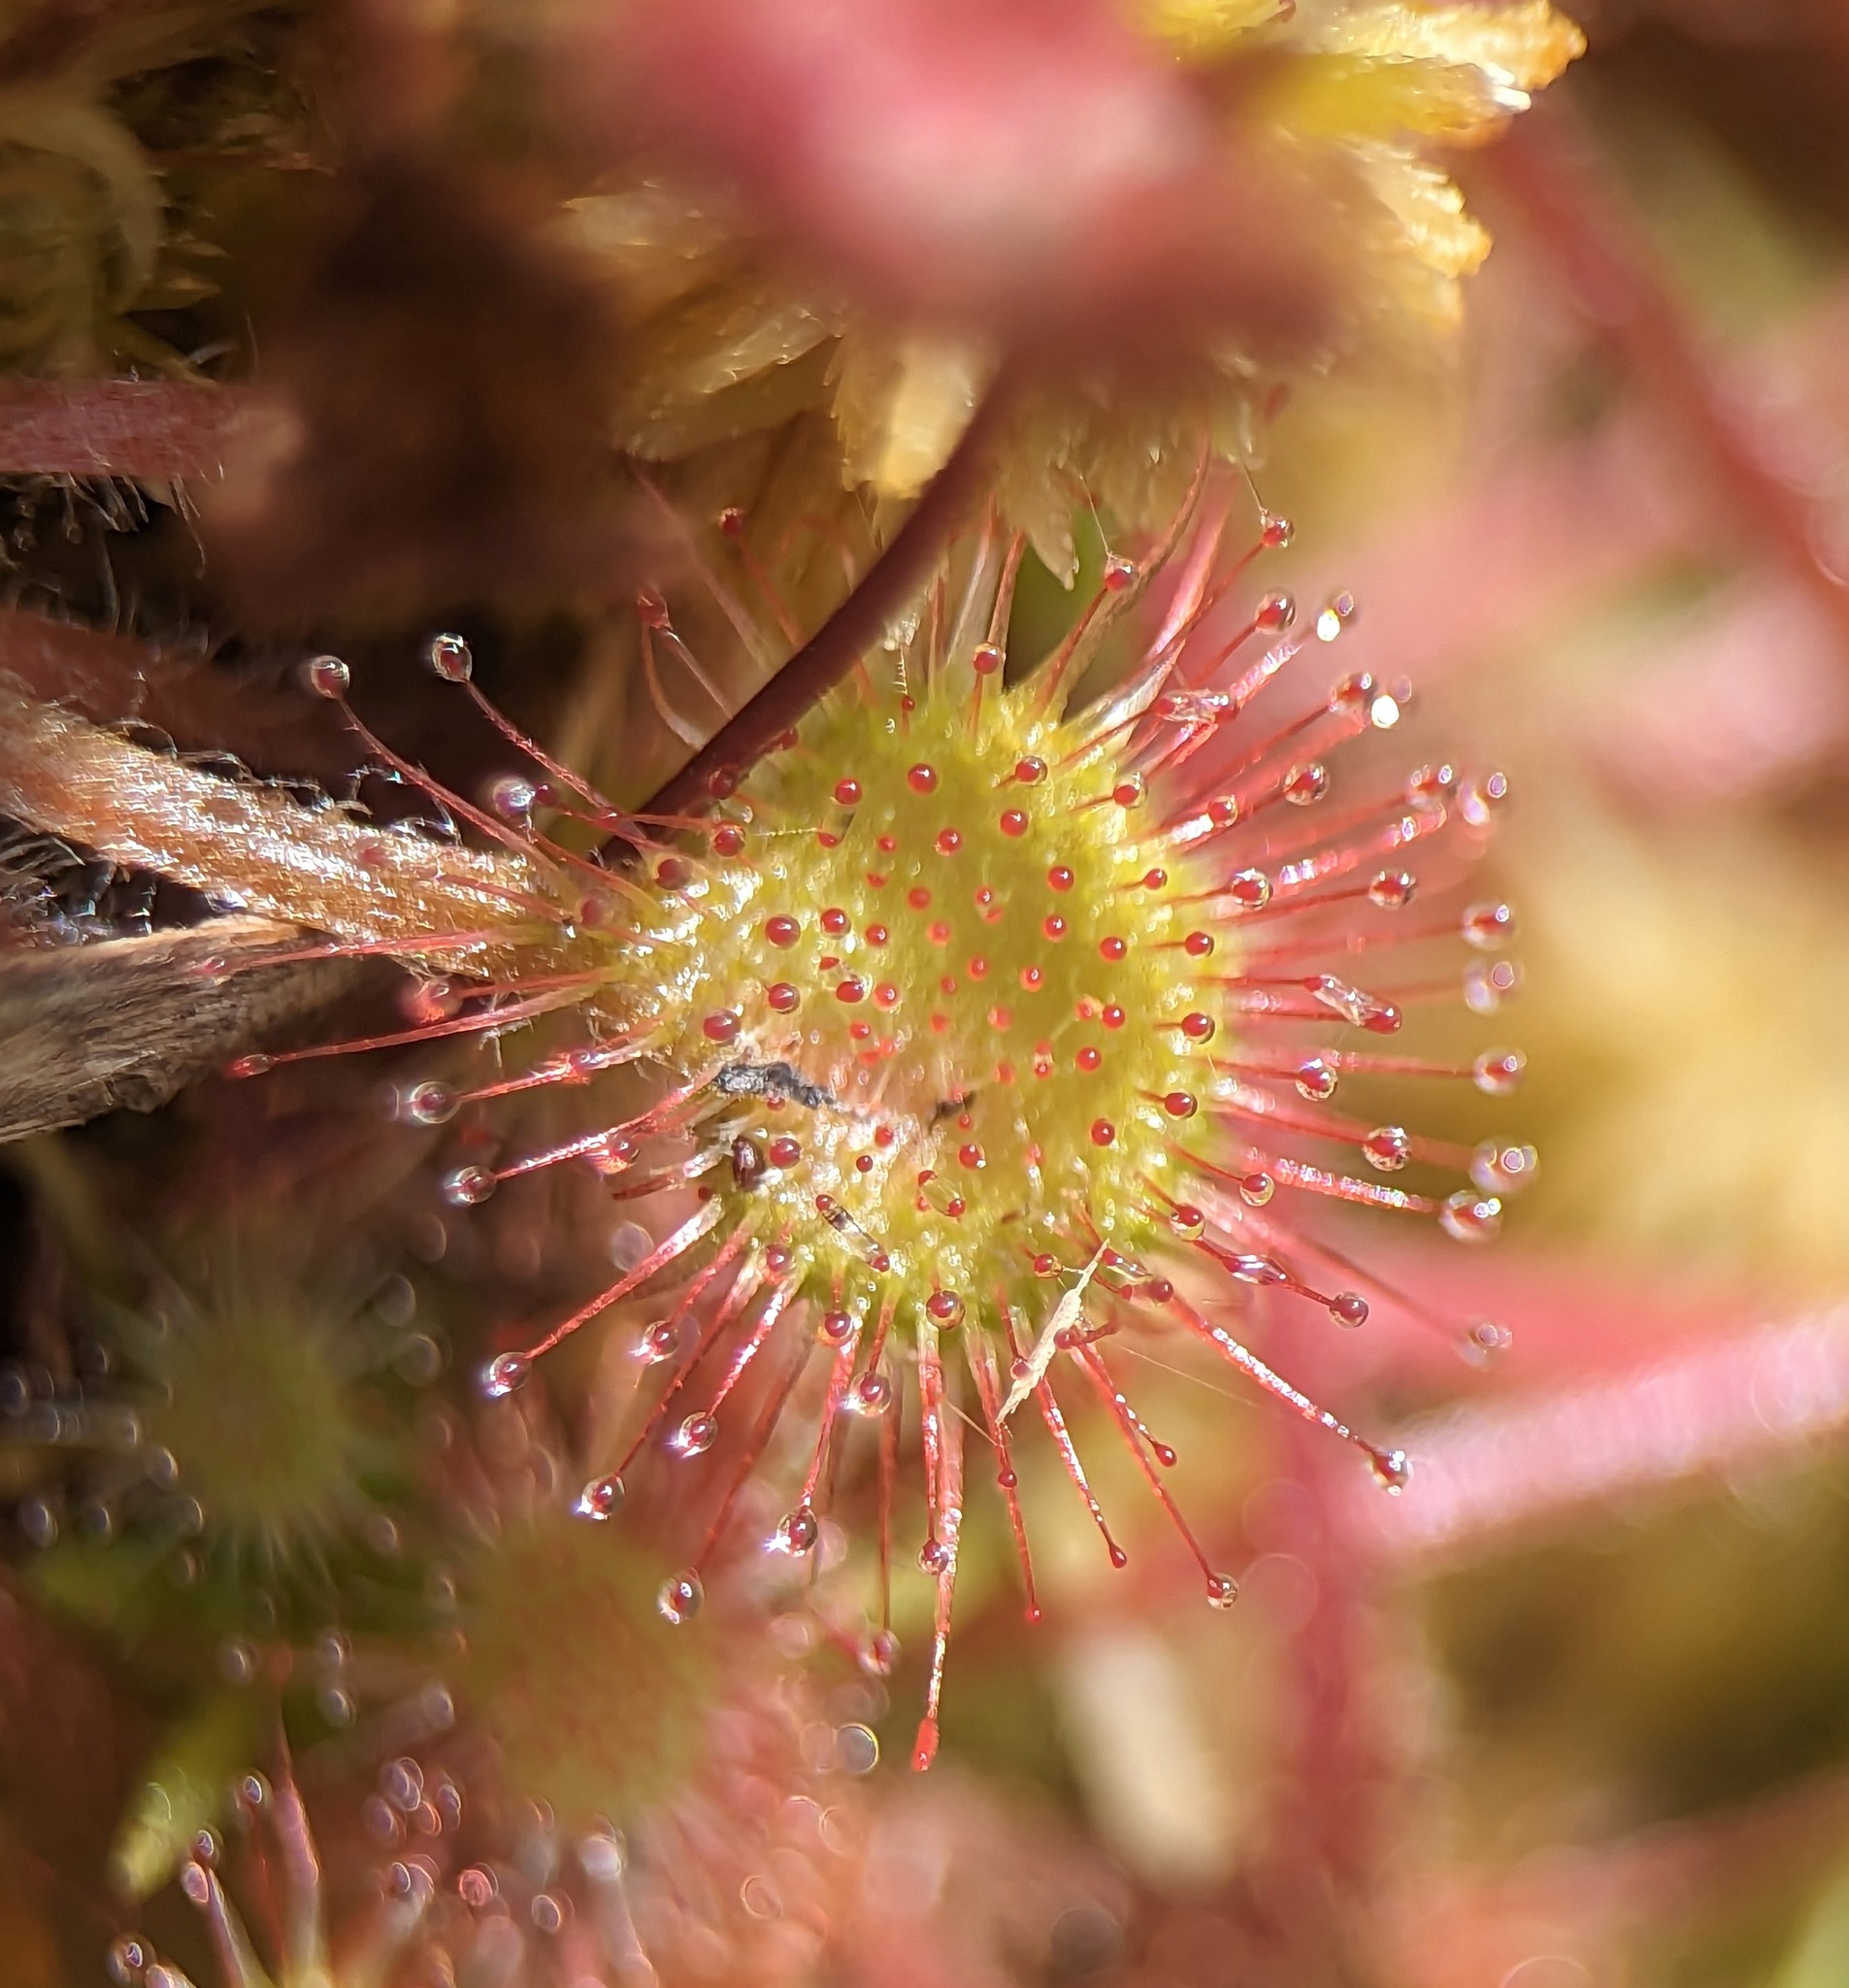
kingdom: Plantae
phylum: Tracheophyta
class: Magnoliopsida
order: Caryophyllales
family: Droseraceae
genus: Drosera
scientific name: Drosera rotundifolia
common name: Round-leaved sundew
